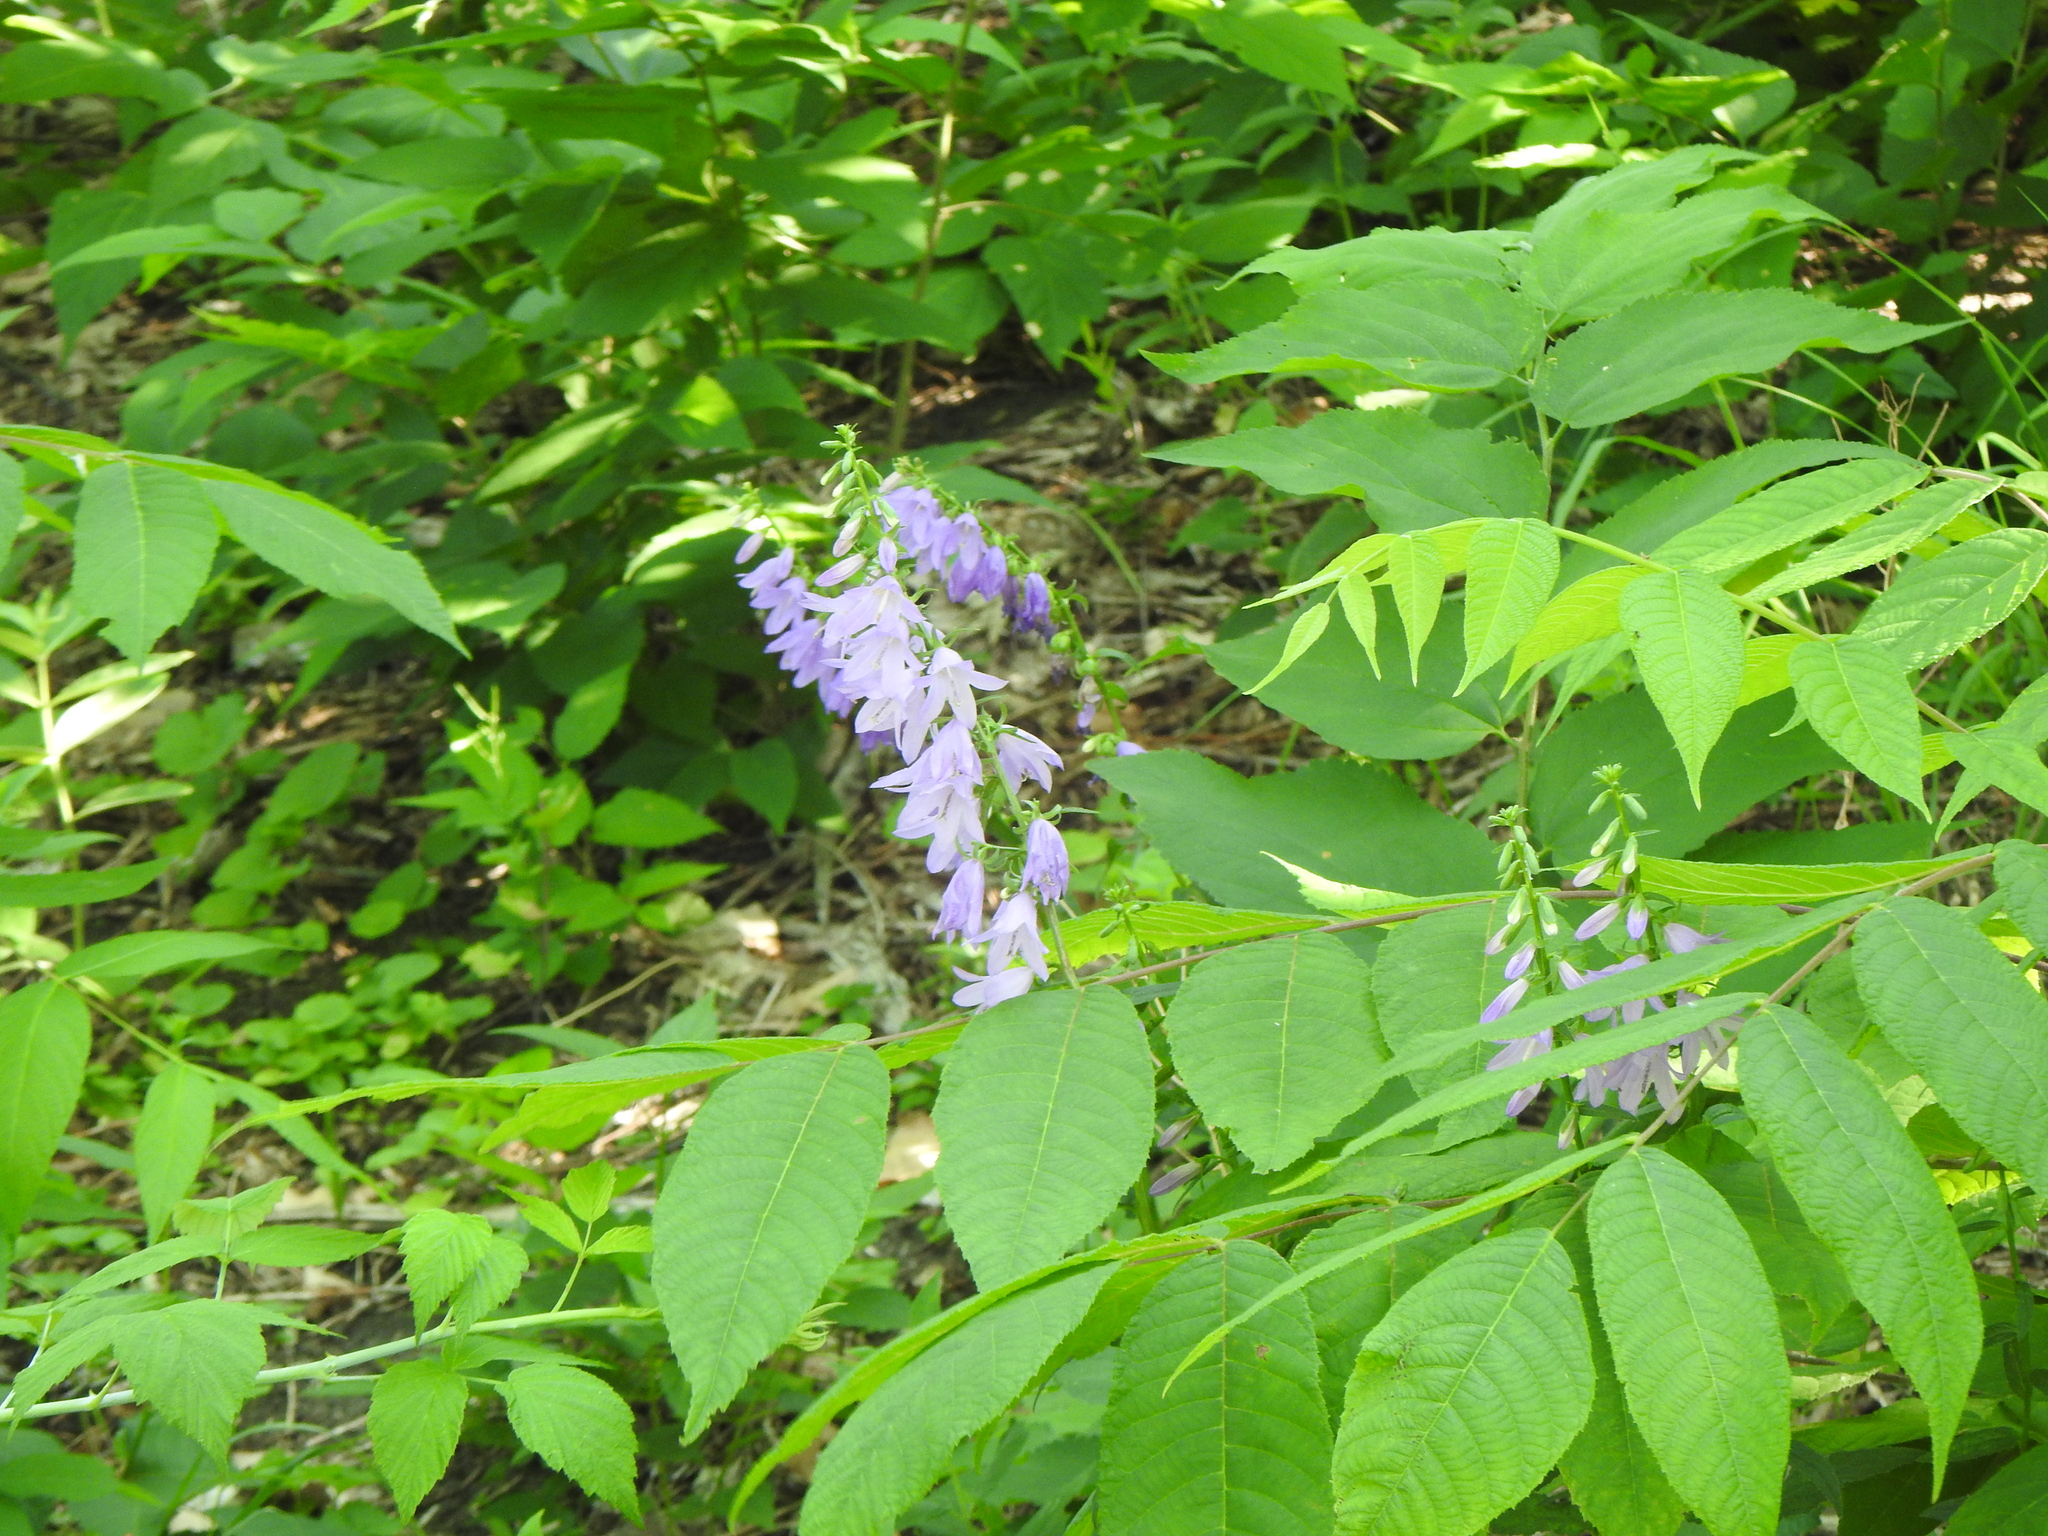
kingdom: Plantae
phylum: Tracheophyta
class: Magnoliopsida
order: Asterales
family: Campanulaceae
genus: Campanula
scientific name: Campanula rapunculoides
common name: Creeping bellflower
